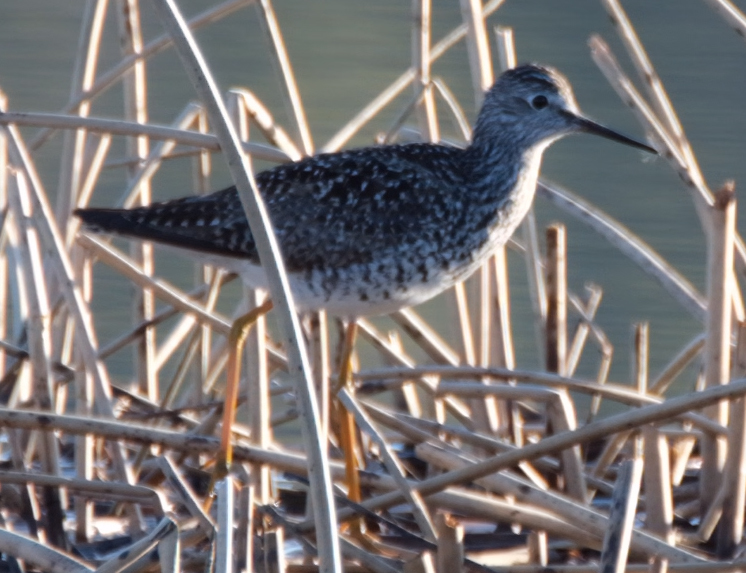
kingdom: Animalia
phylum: Chordata
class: Aves
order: Charadriiformes
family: Scolopacidae
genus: Tringa
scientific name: Tringa flavipes
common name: Lesser yellowlegs
